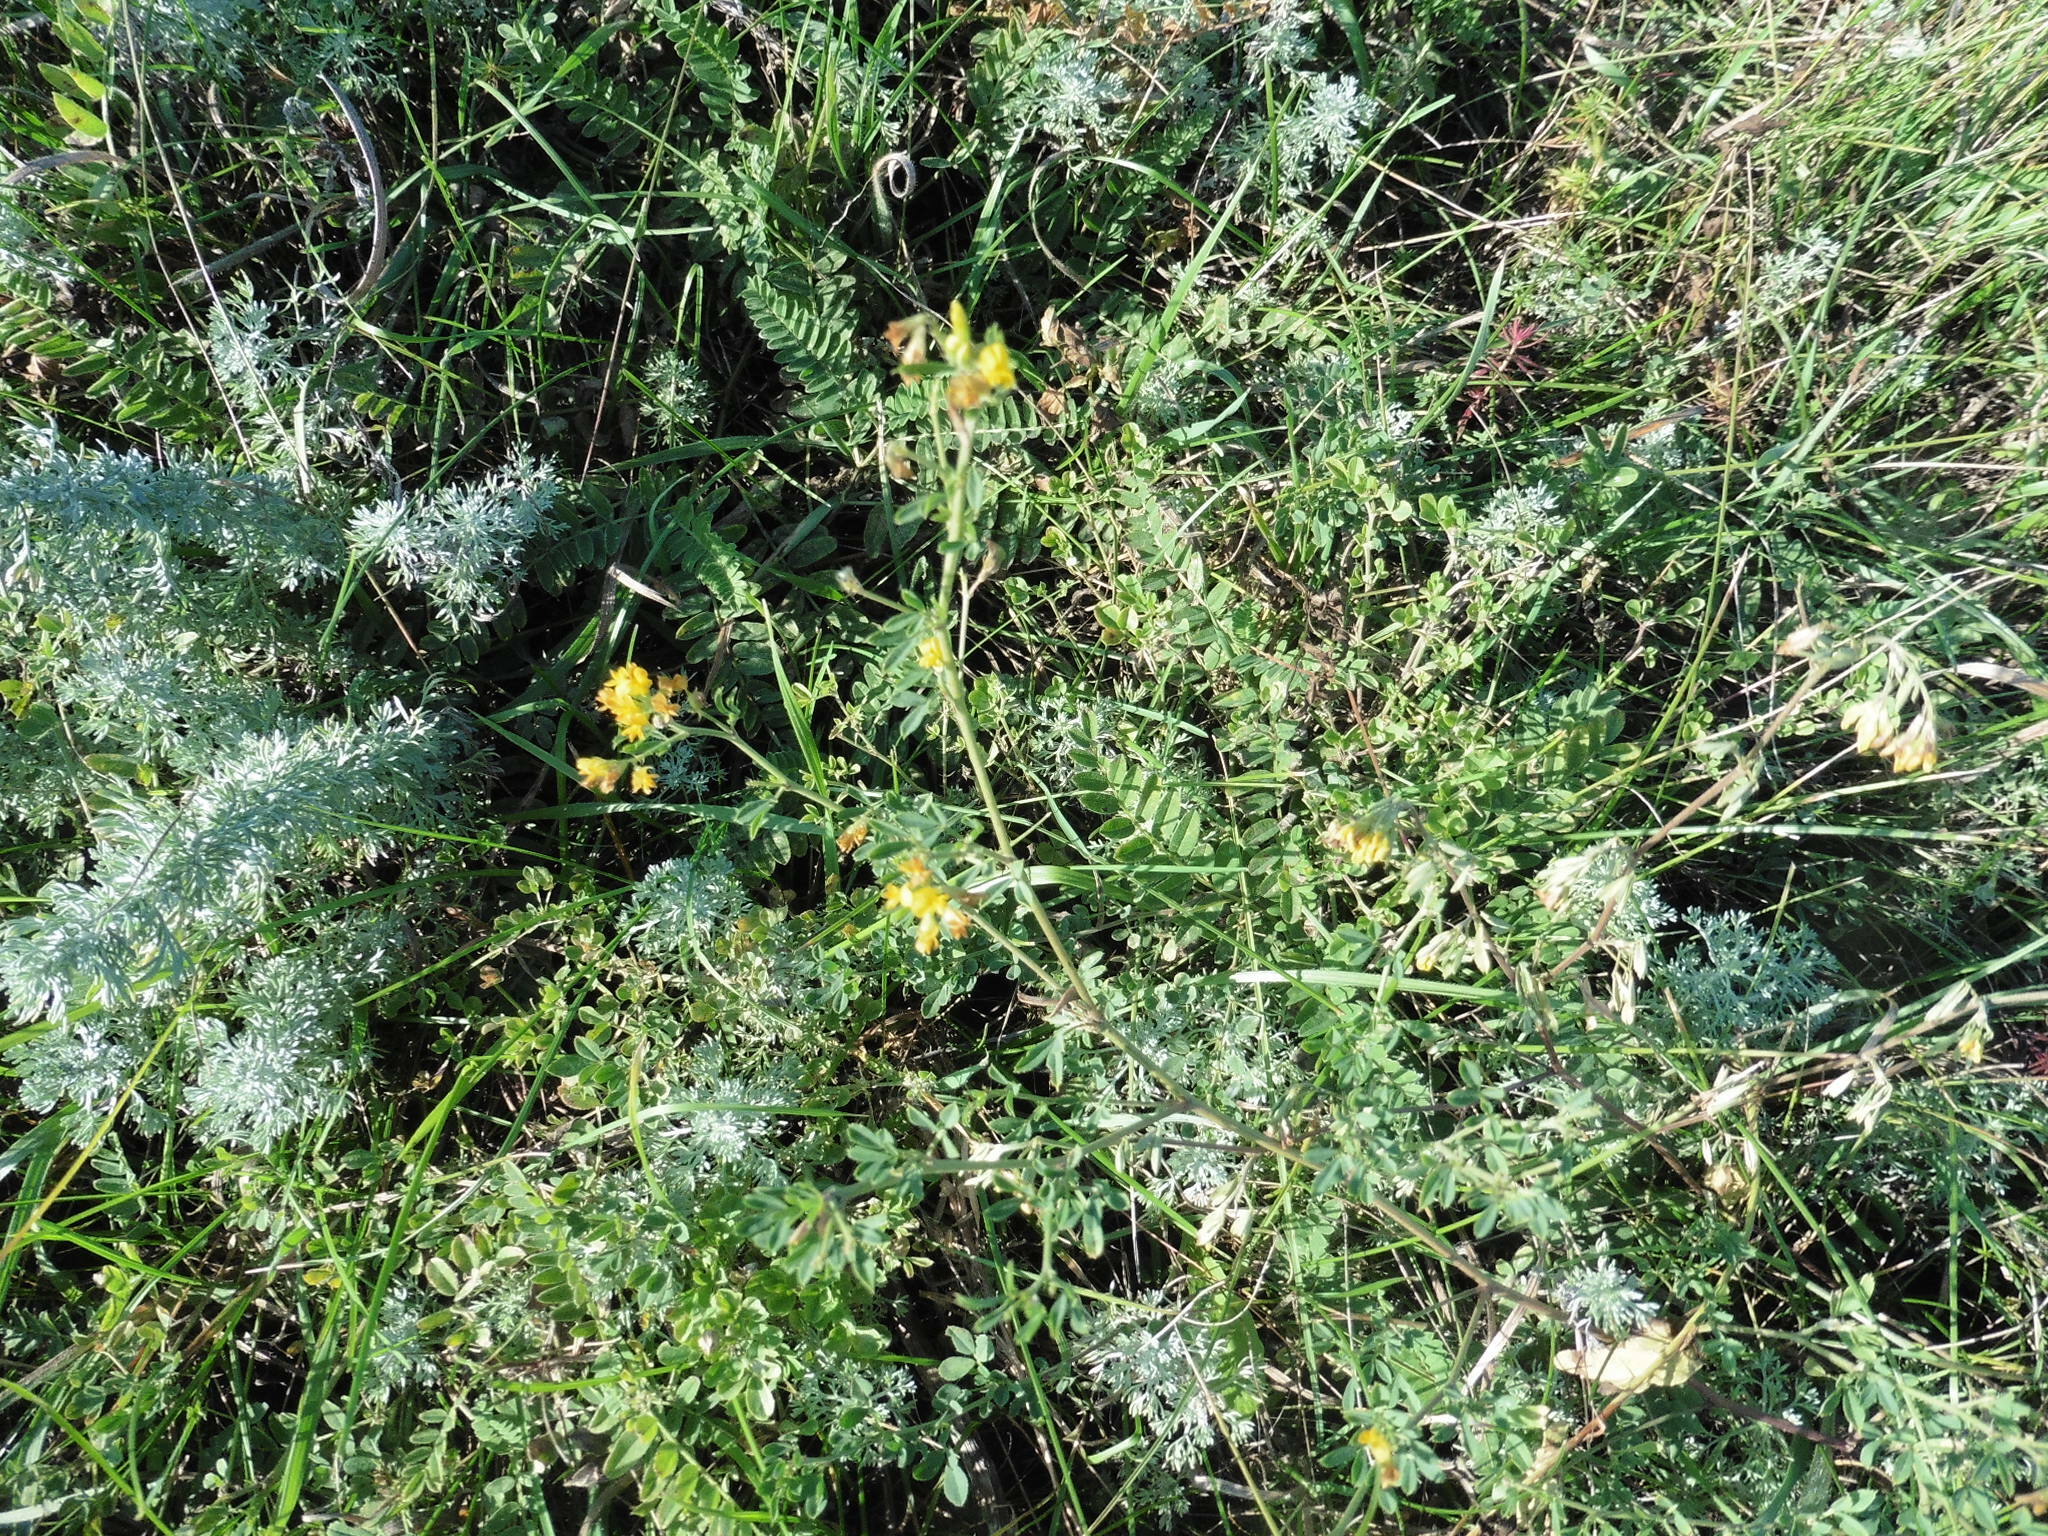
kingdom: Plantae
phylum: Tracheophyta
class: Magnoliopsida
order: Fabales
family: Fabaceae
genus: Medicago
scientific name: Medicago falcata
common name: Sickle medick
